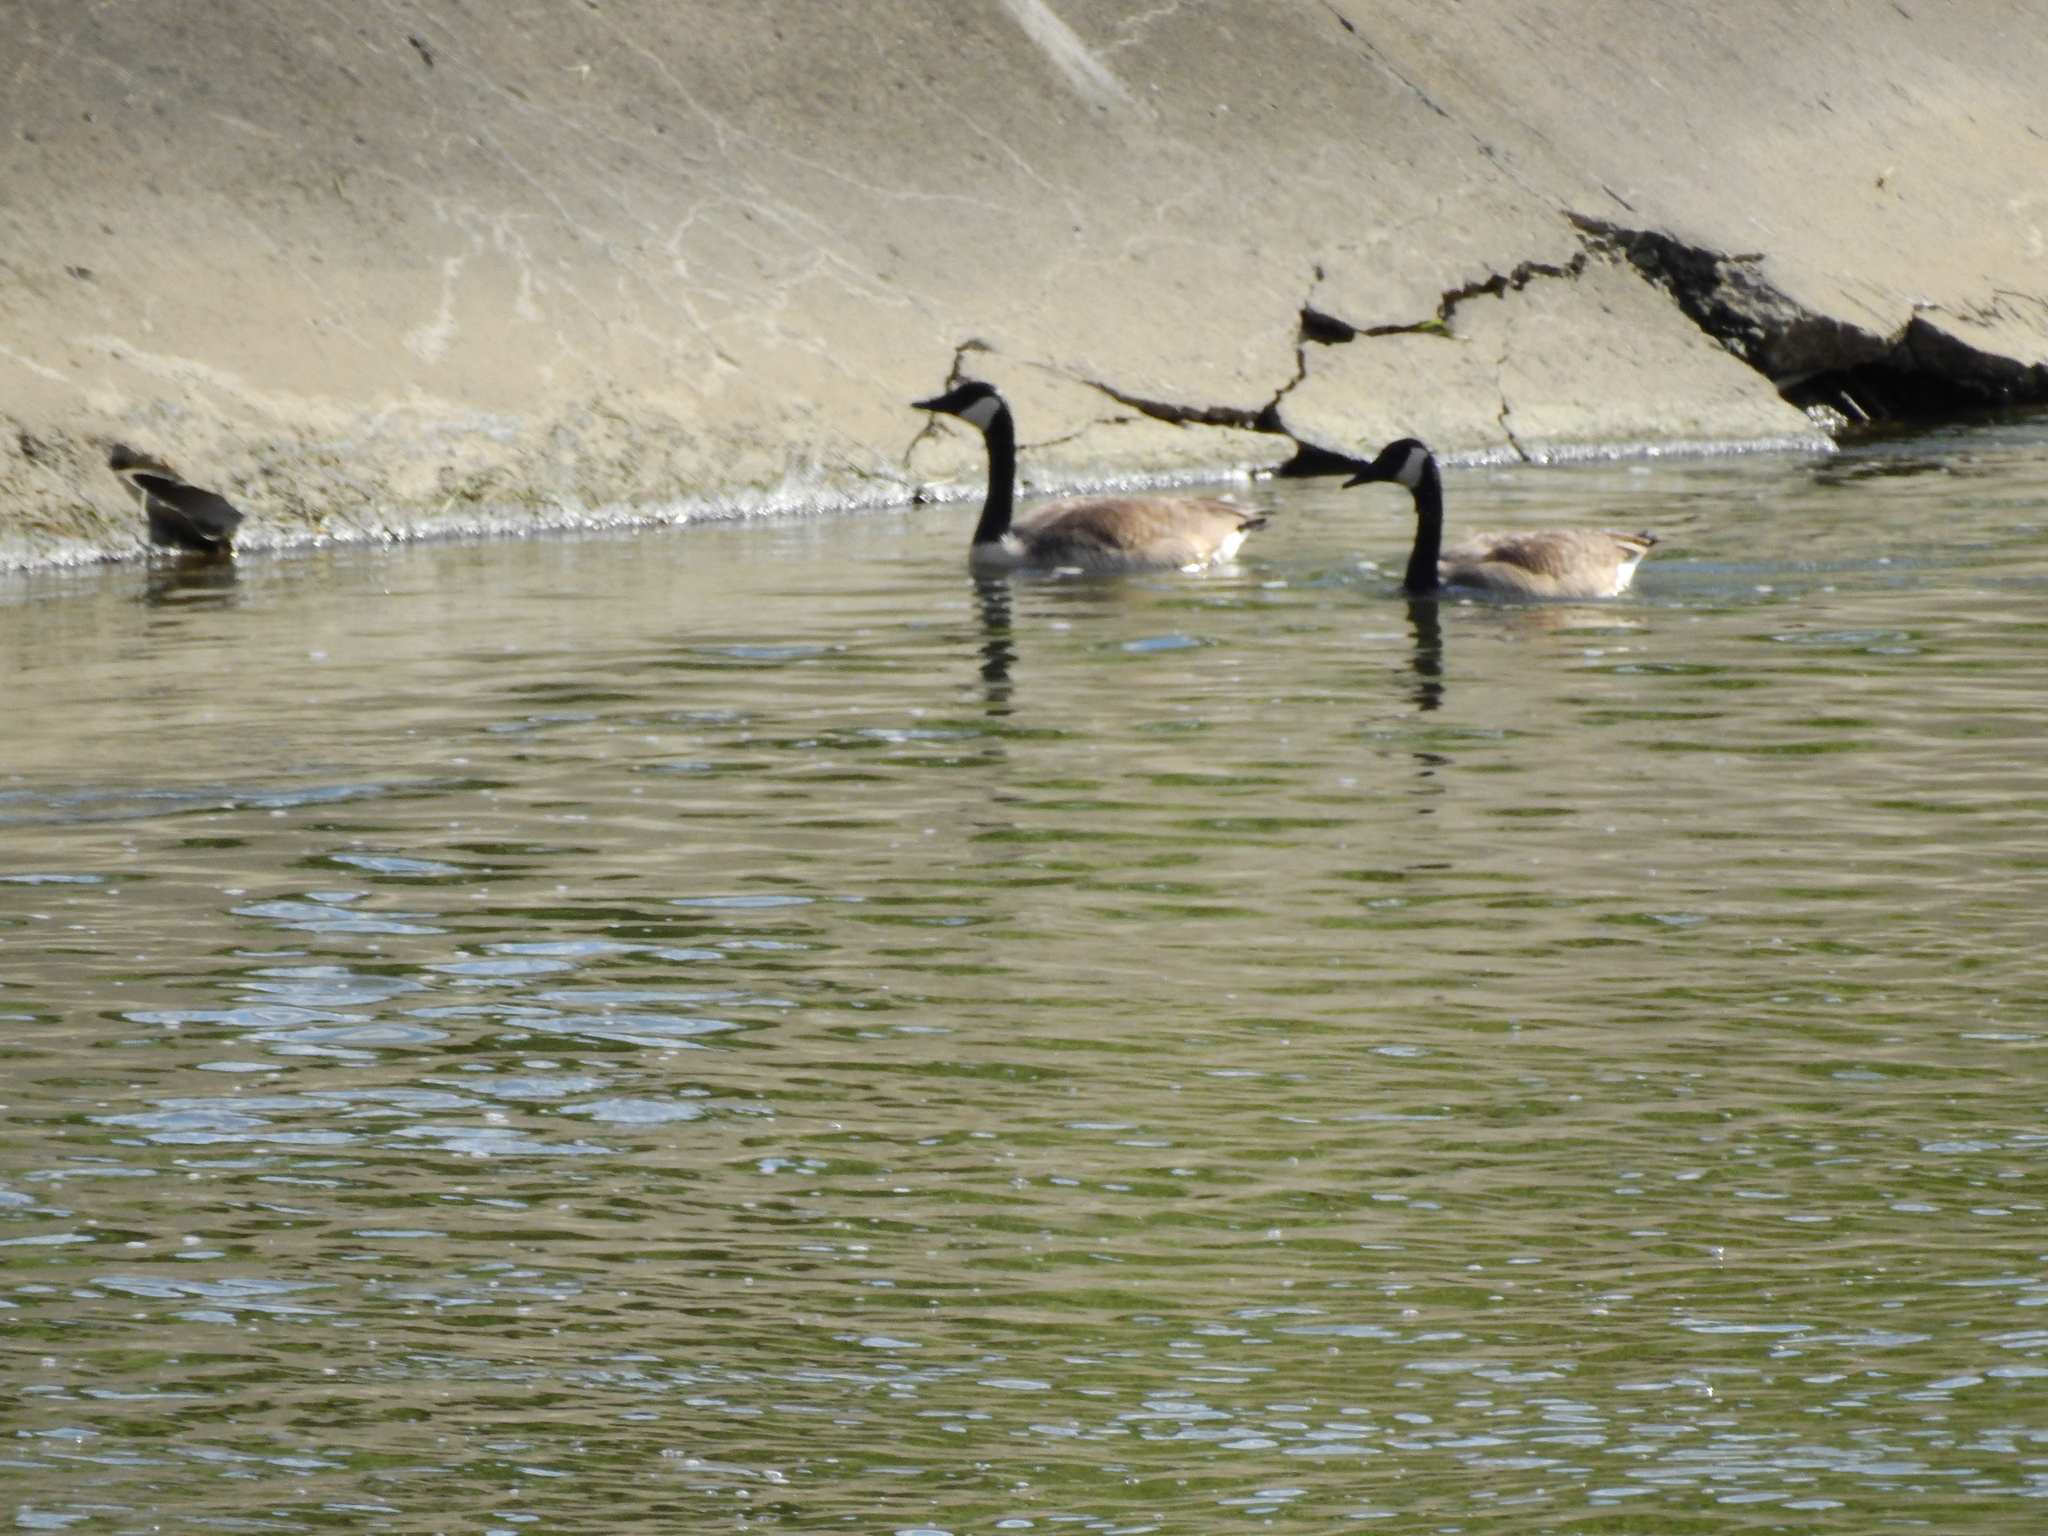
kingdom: Animalia
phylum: Chordata
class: Aves
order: Anseriformes
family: Anatidae
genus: Branta
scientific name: Branta canadensis
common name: Canada goose
